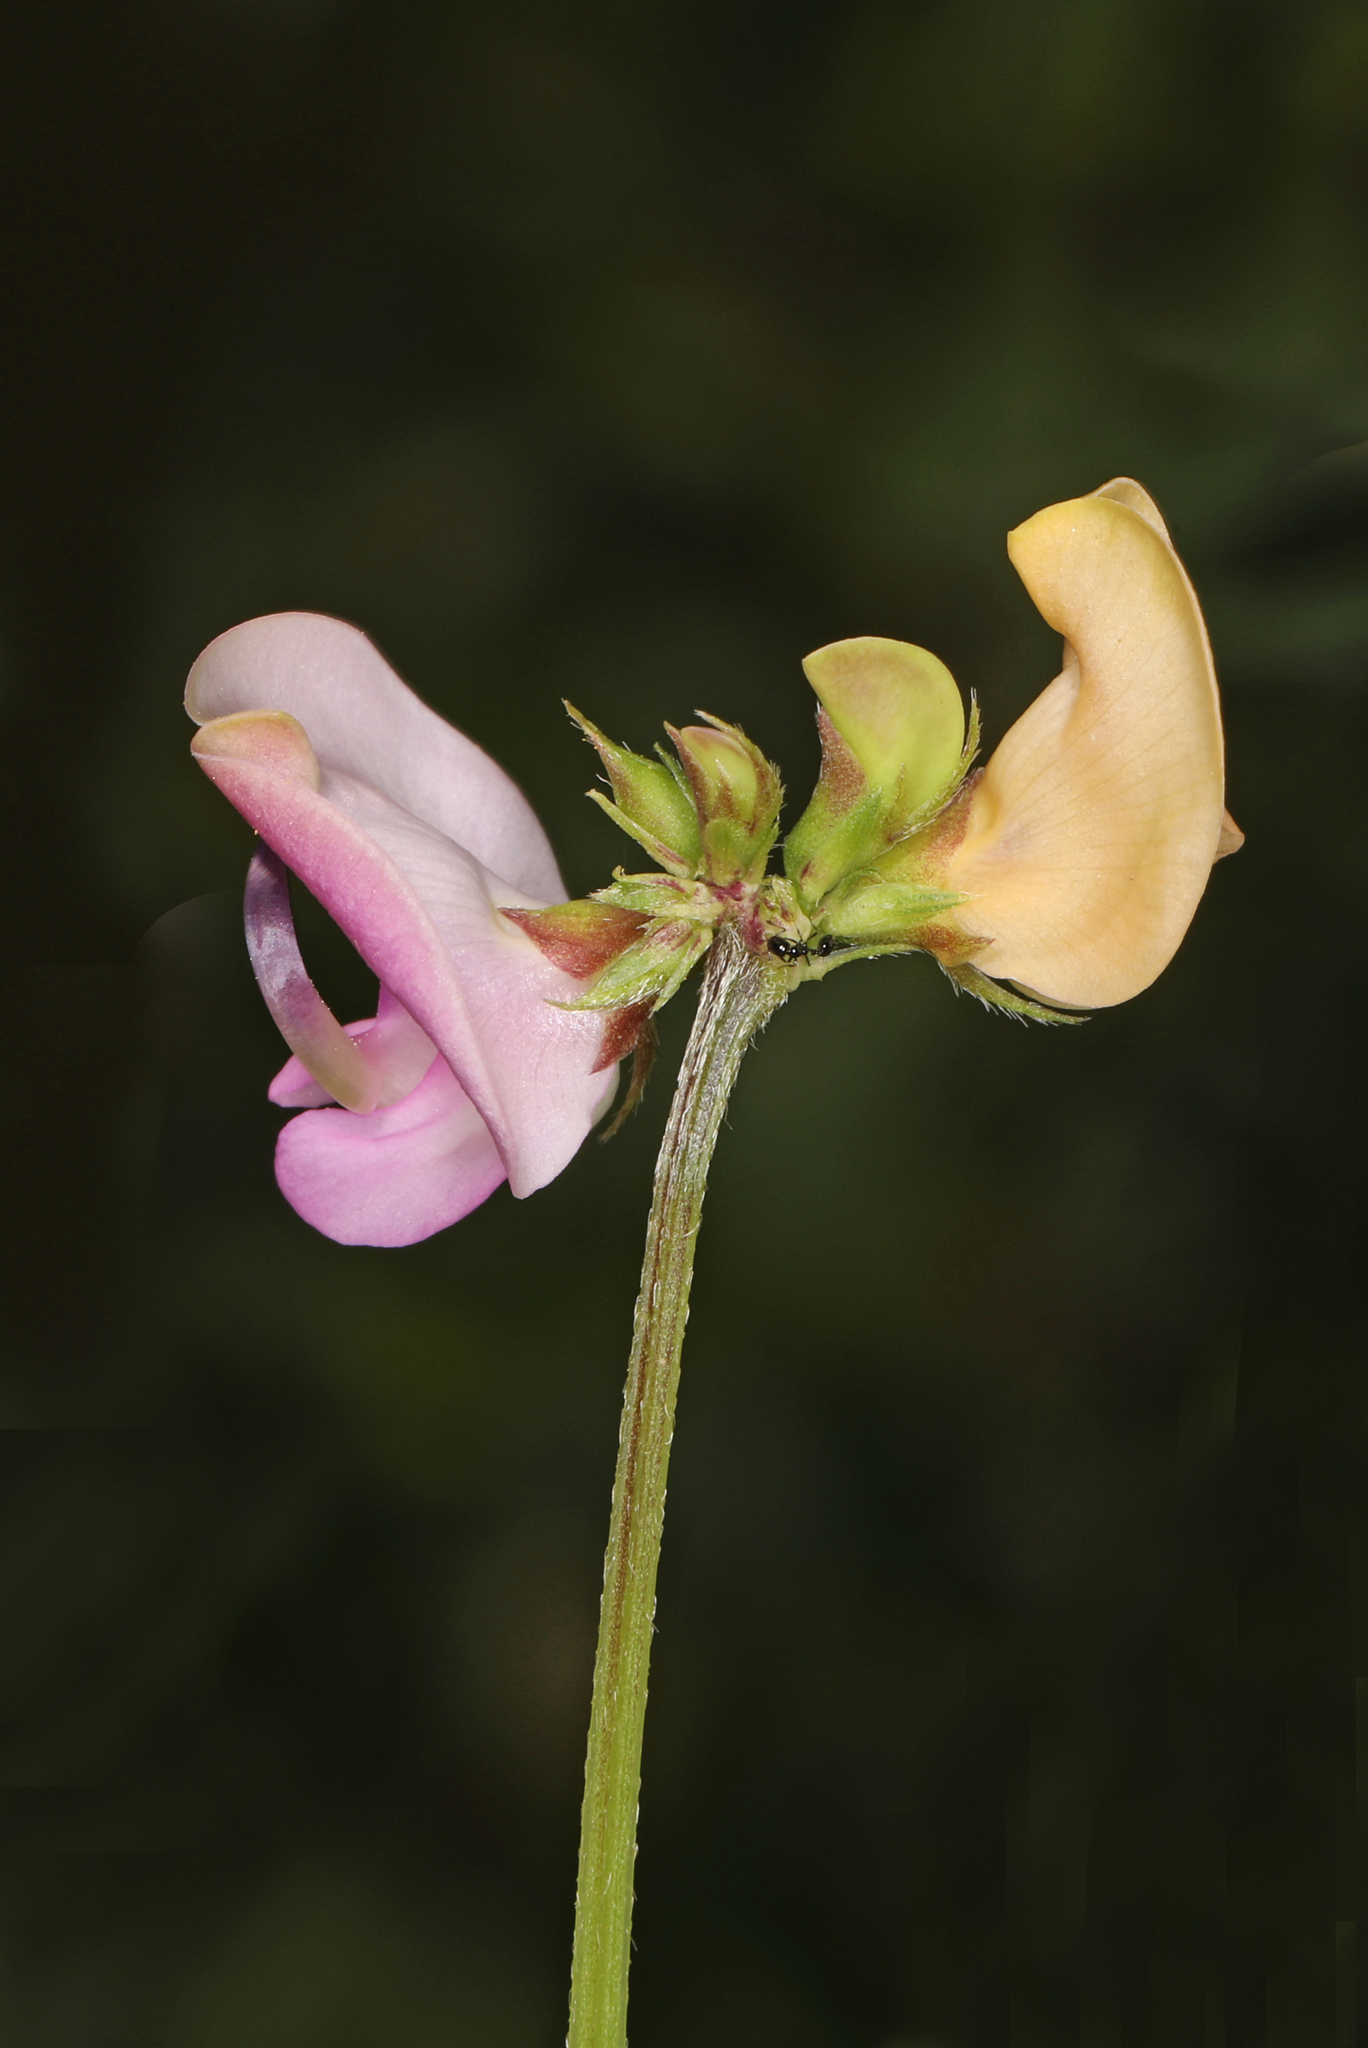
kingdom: Plantae
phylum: Tracheophyta
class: Magnoliopsida
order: Fabales
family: Fabaceae
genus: Strophostyles
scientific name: Strophostyles helvola
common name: Trailing wild bean
